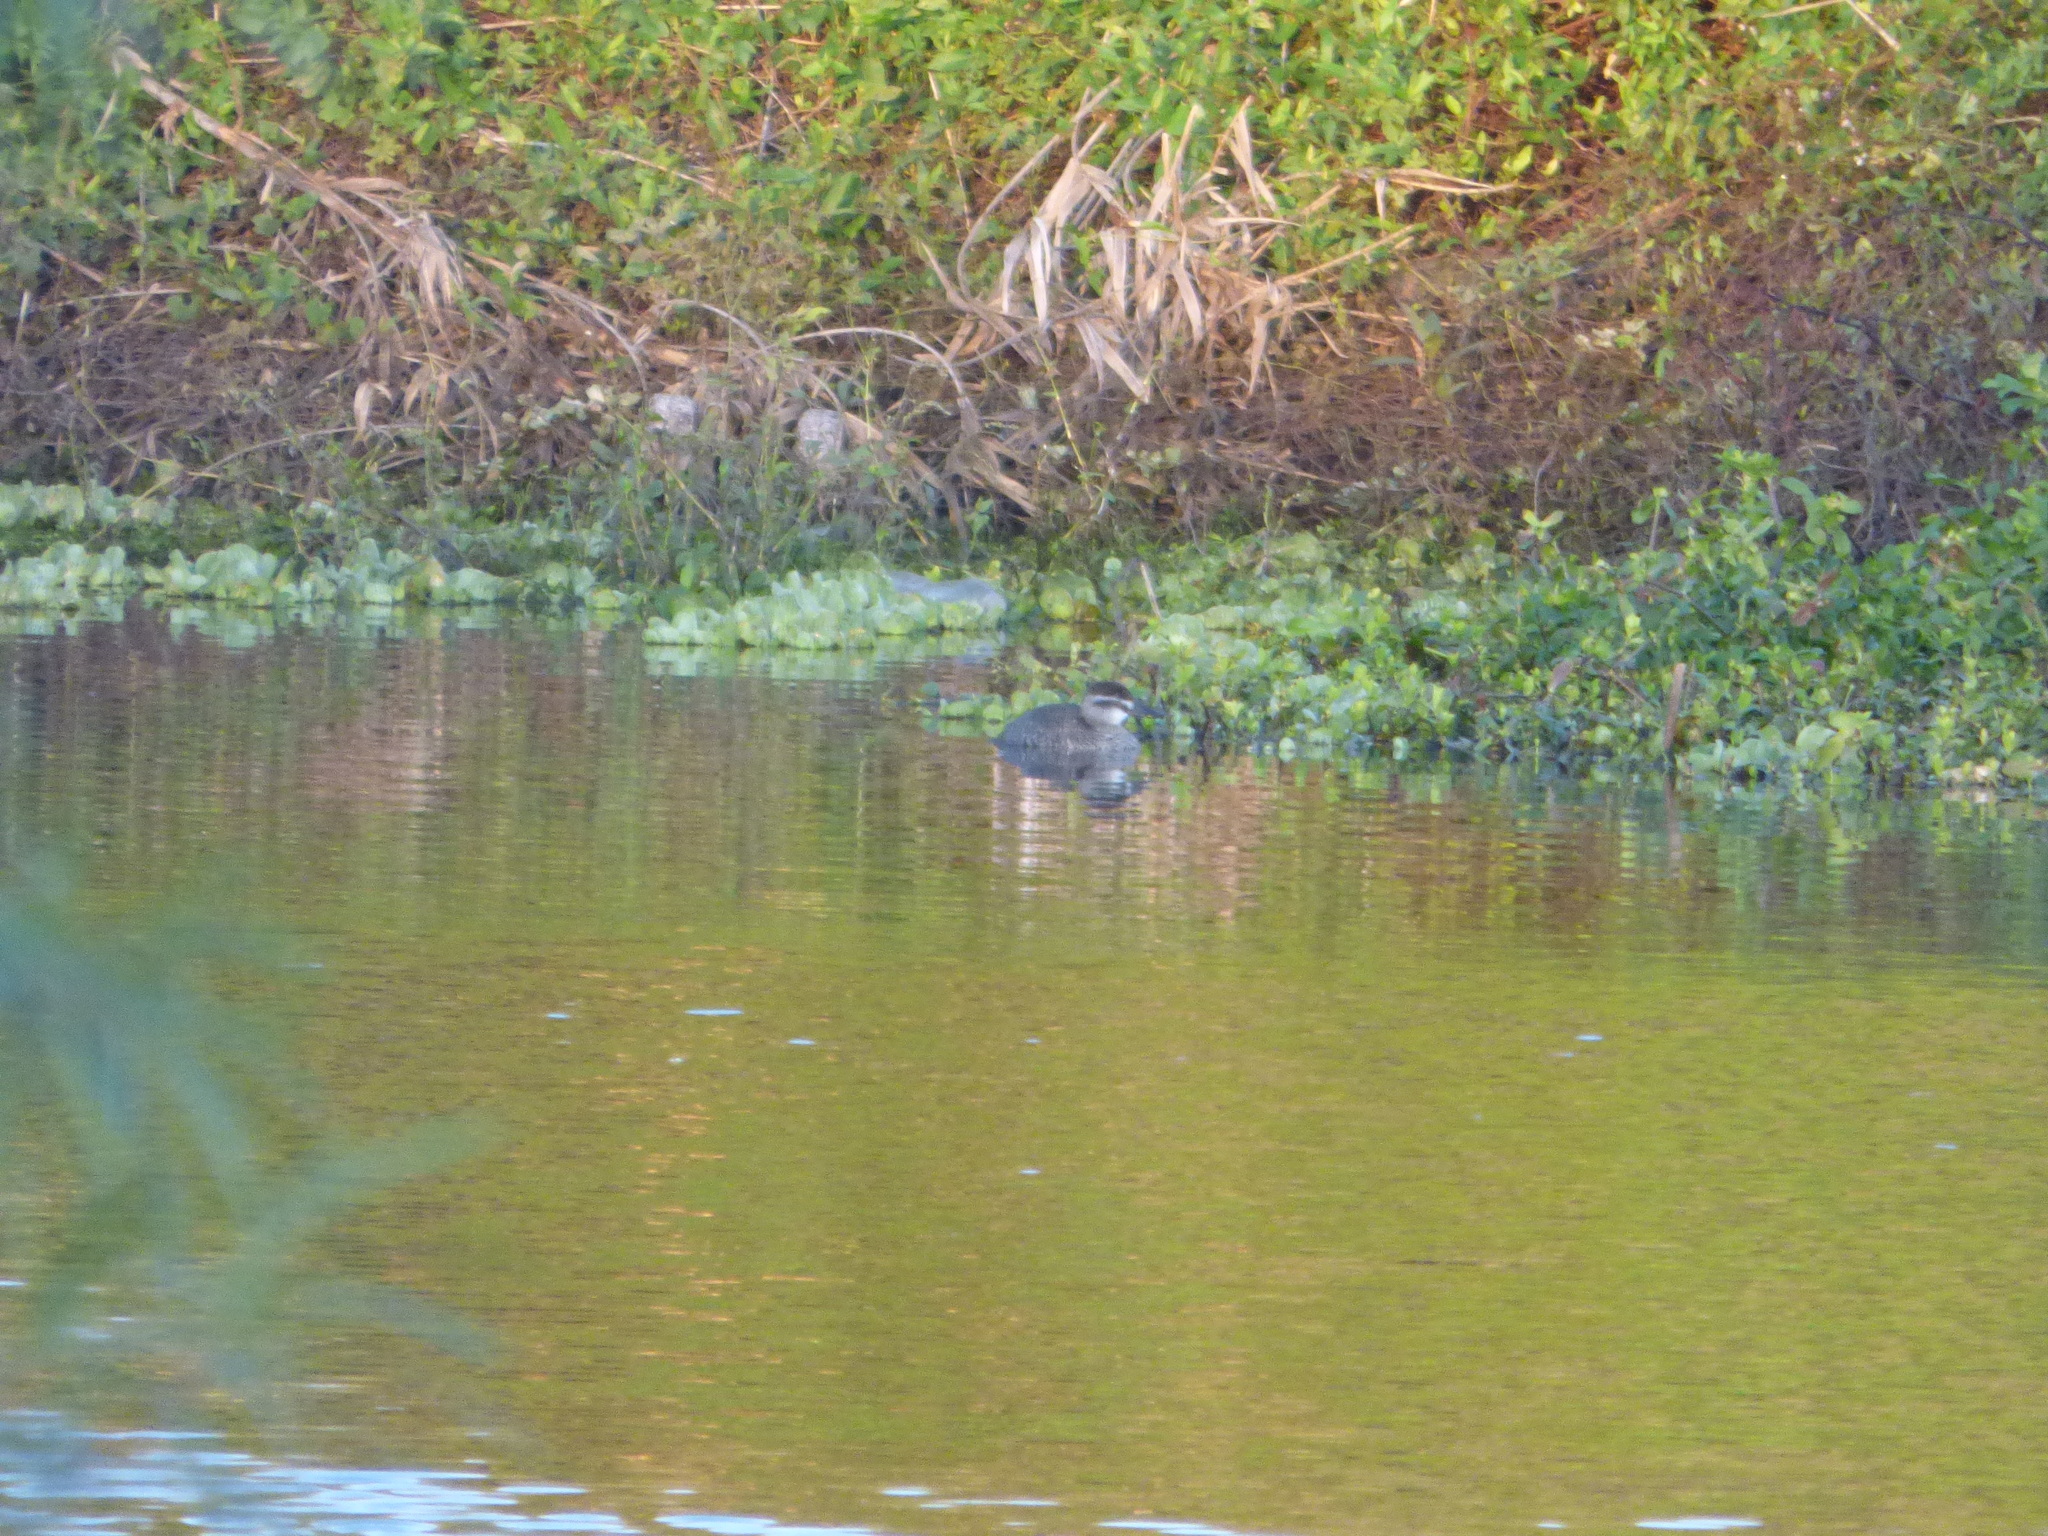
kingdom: Animalia
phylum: Chordata
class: Aves
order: Anseriformes
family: Anatidae
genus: Oxyura
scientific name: Oxyura vittata
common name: Lake duck
